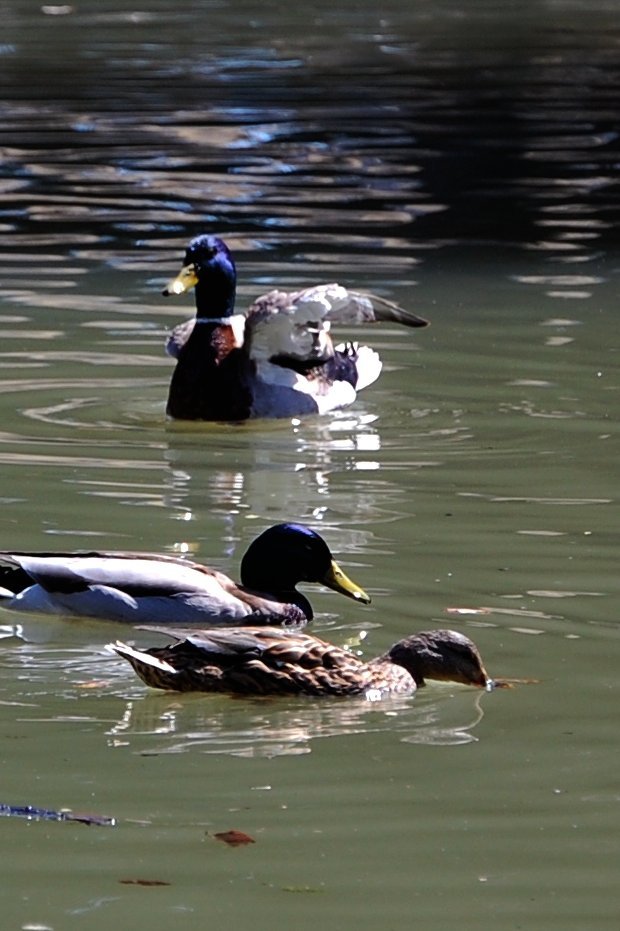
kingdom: Animalia
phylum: Chordata
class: Aves
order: Anseriformes
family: Anatidae
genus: Anas
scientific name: Anas platyrhynchos
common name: Mallard
